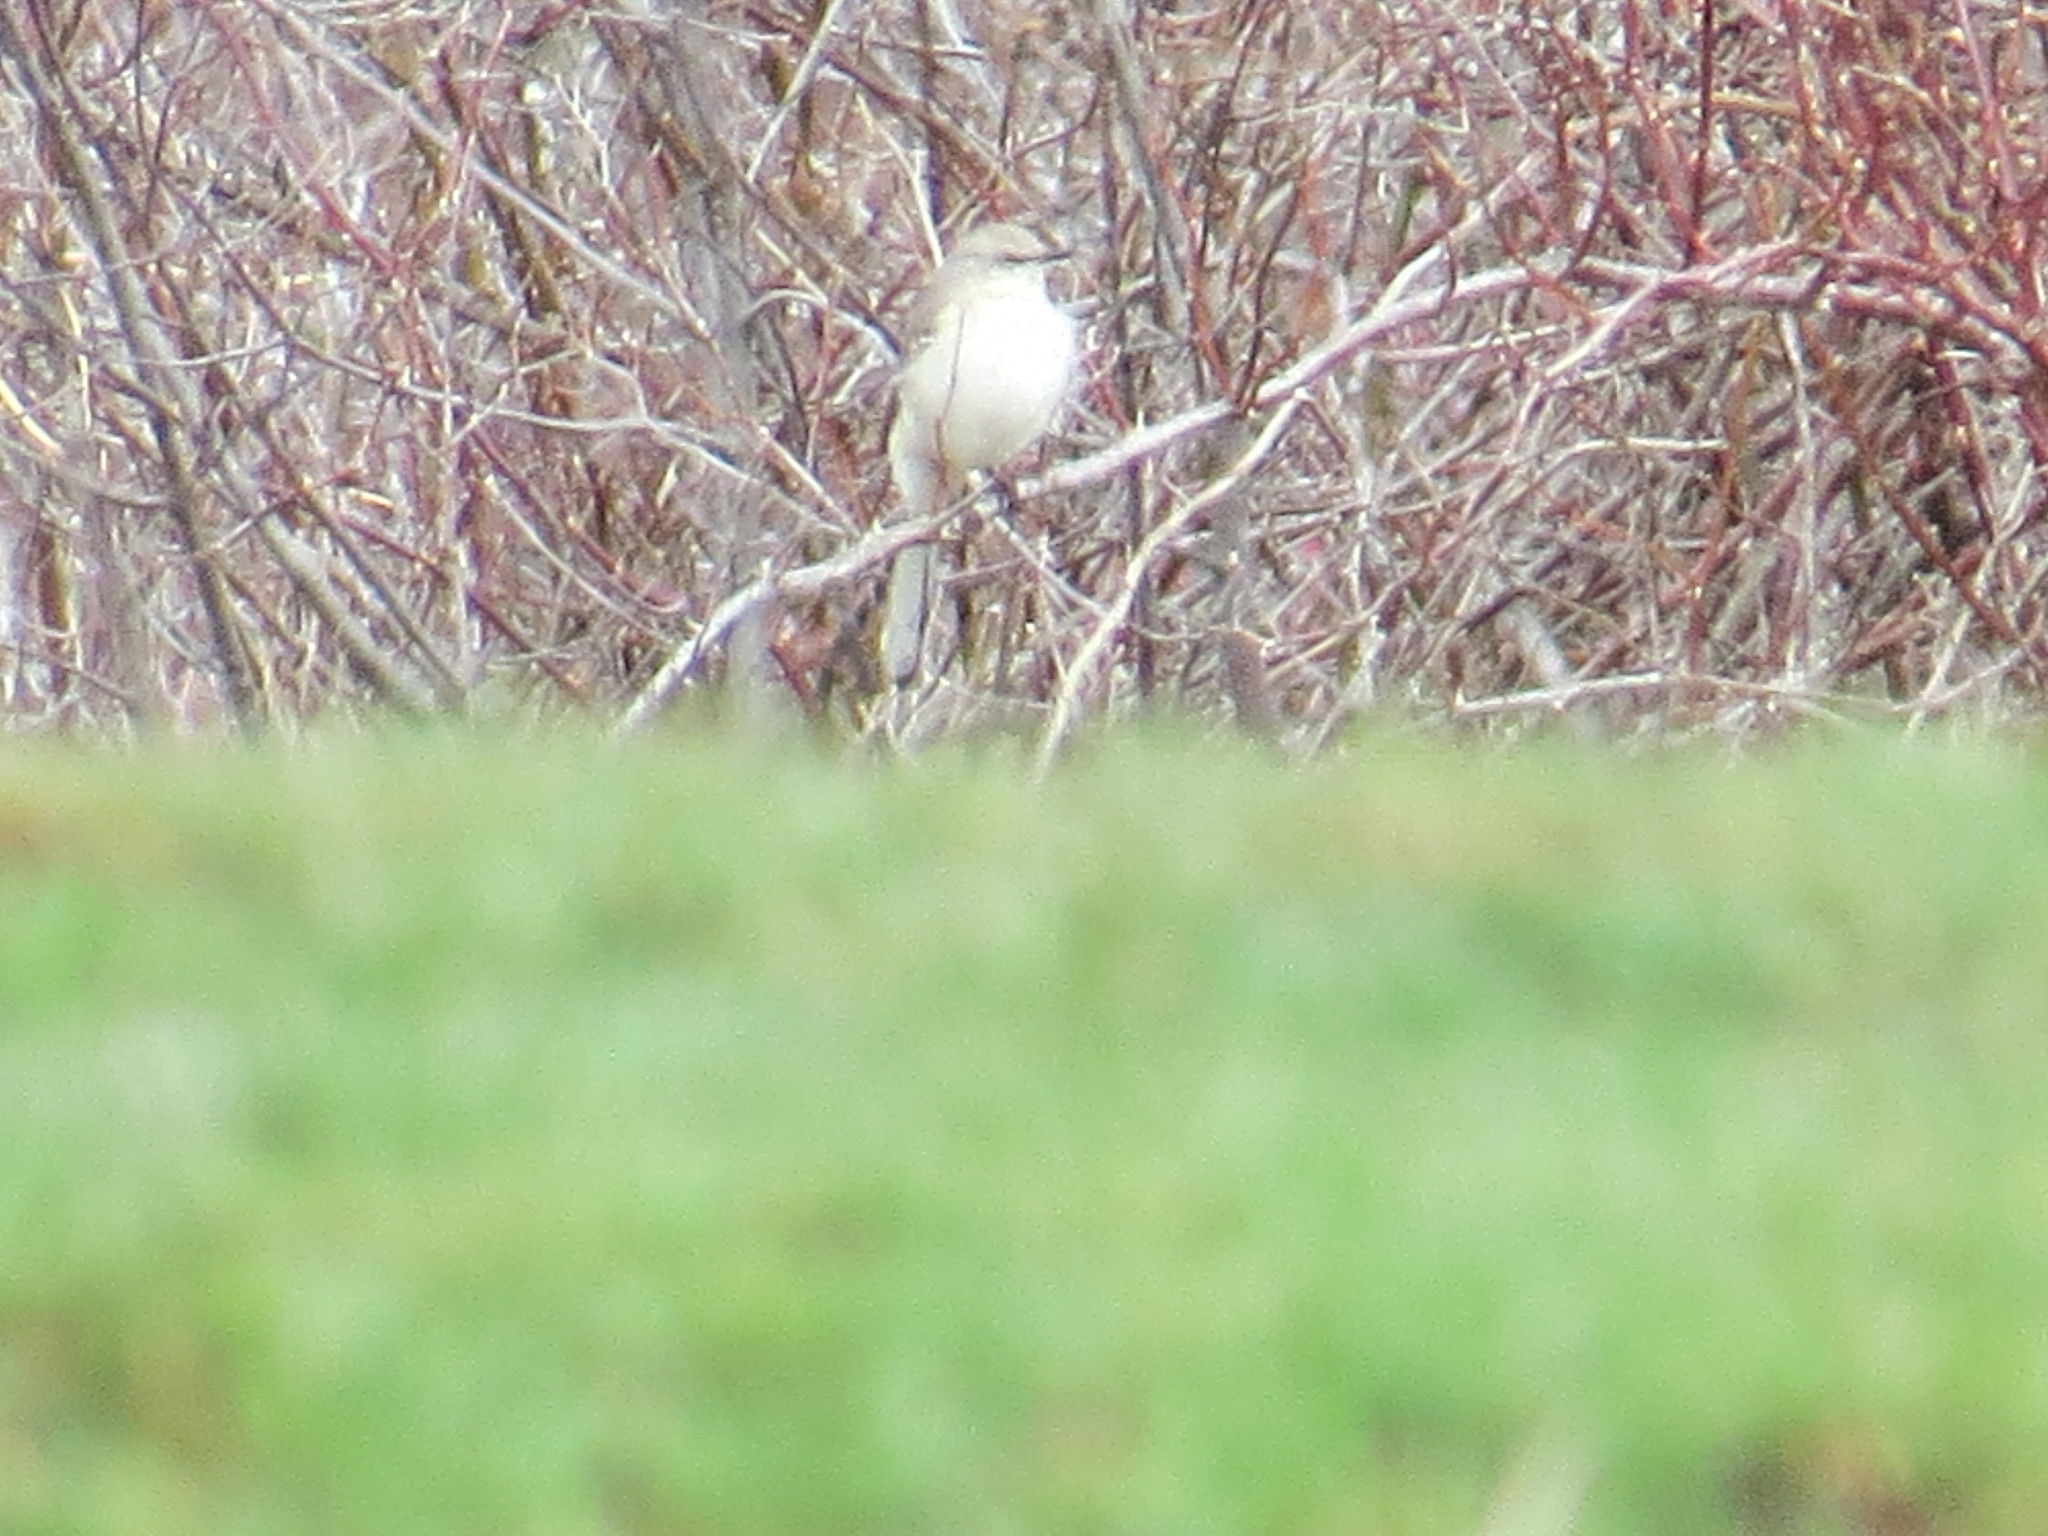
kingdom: Animalia
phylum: Chordata
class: Aves
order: Passeriformes
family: Mimidae
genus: Mimus
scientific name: Mimus polyglottos
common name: Northern mockingbird
